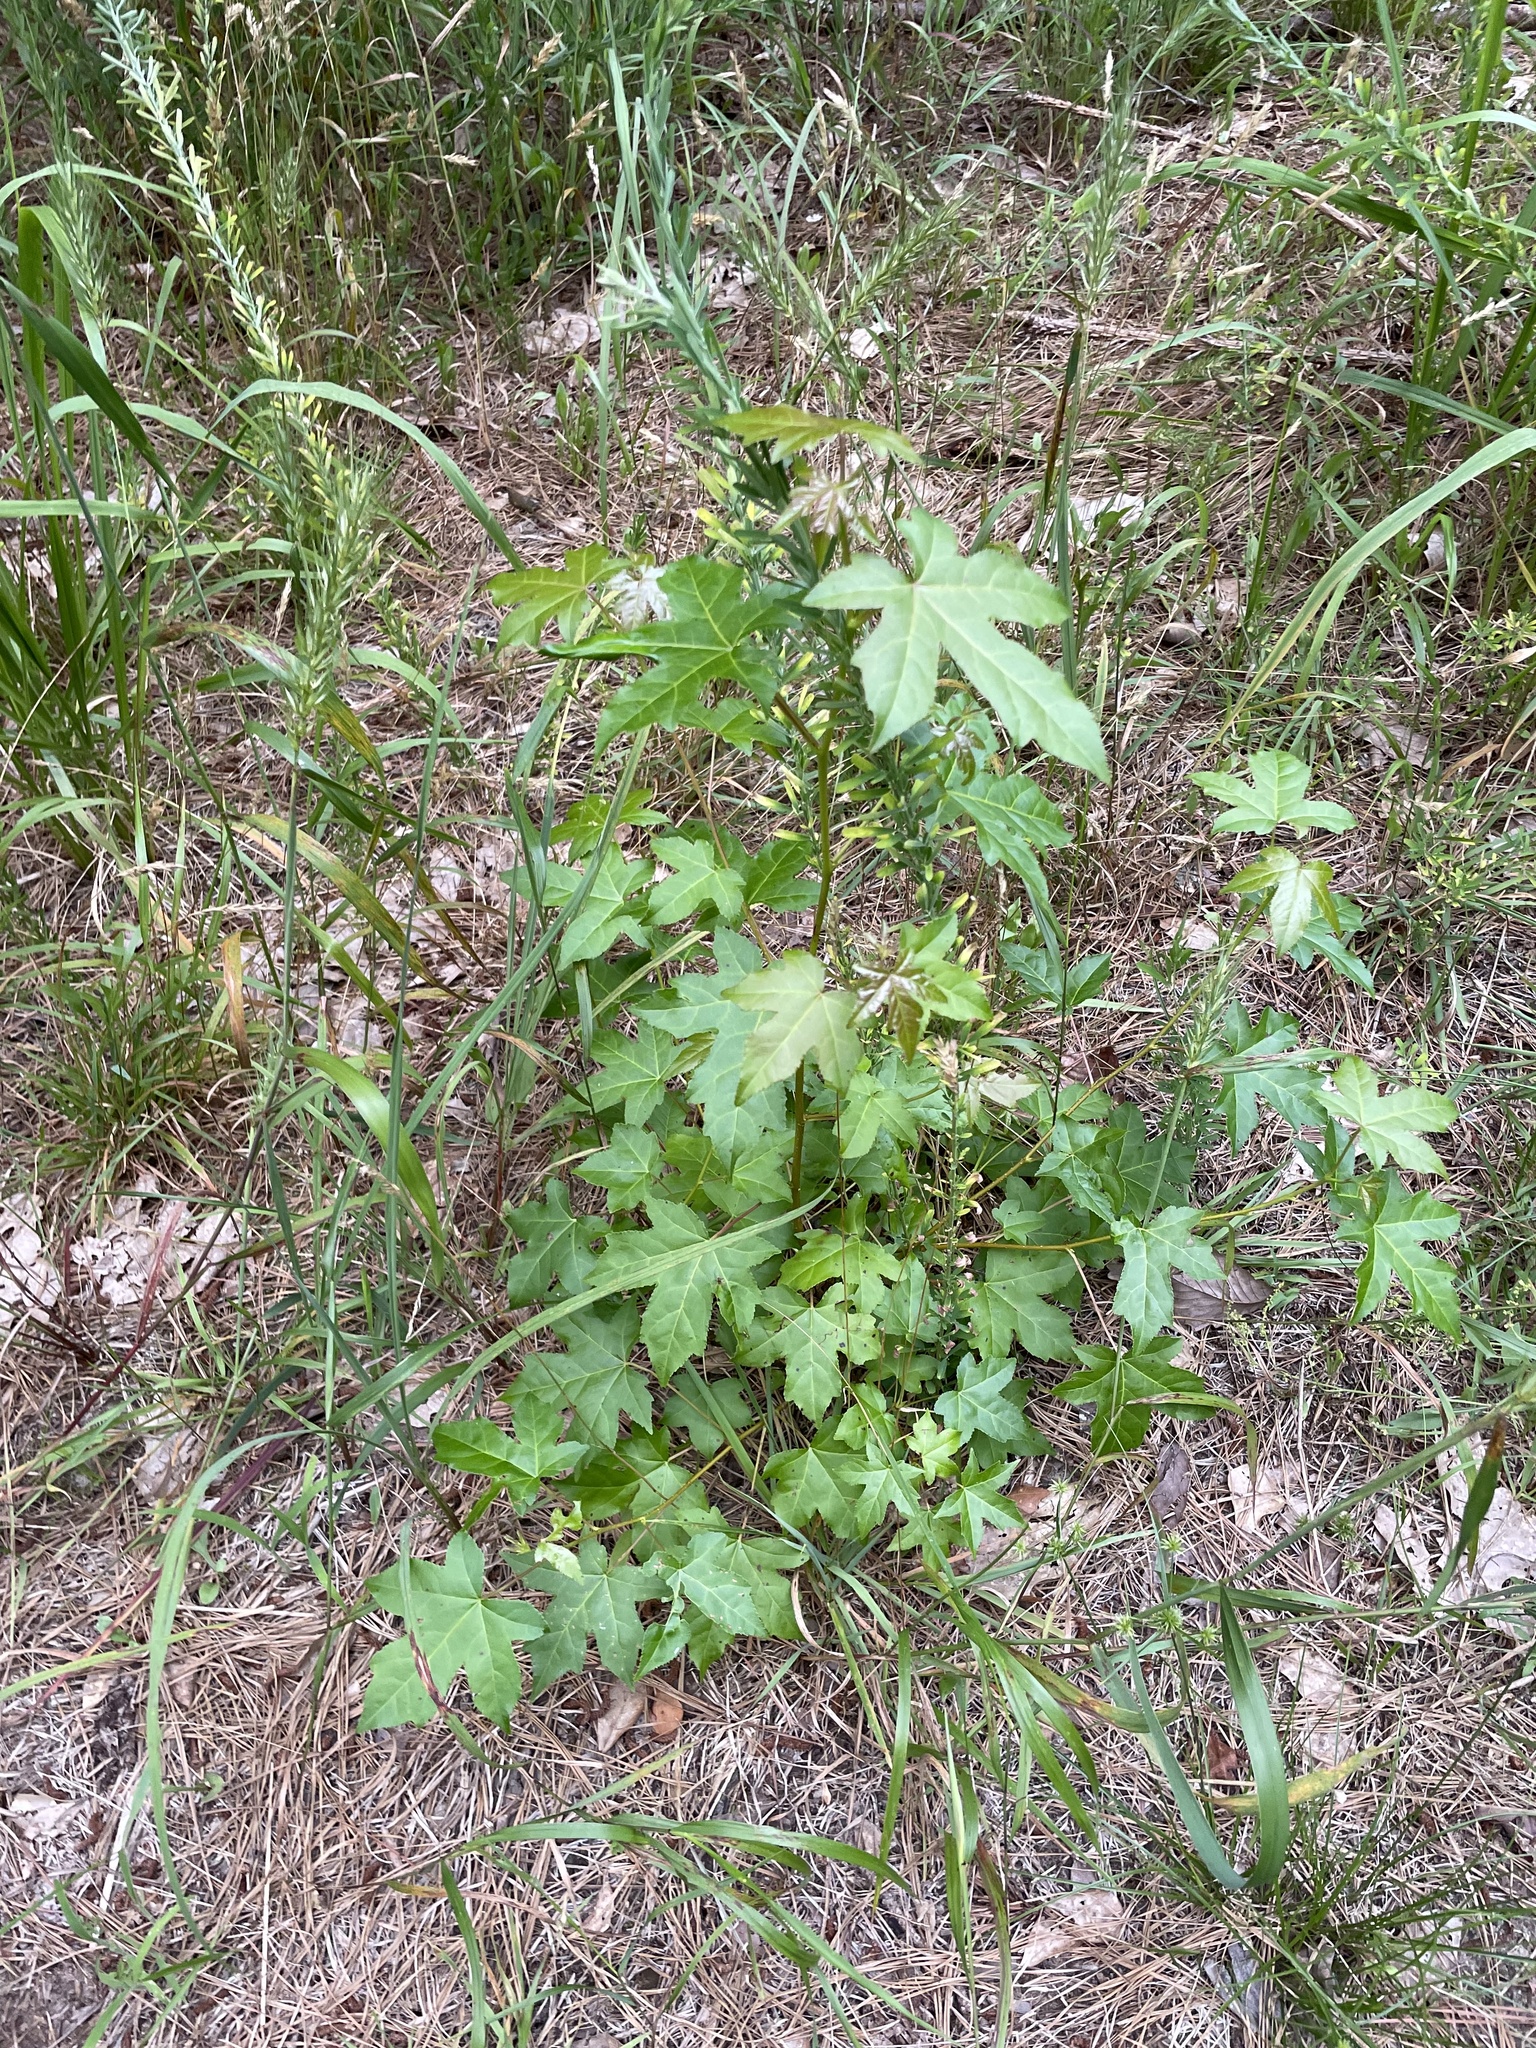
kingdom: Plantae
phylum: Tracheophyta
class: Magnoliopsida
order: Saxifragales
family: Altingiaceae
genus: Liquidambar
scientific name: Liquidambar styraciflua
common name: Sweet gum
